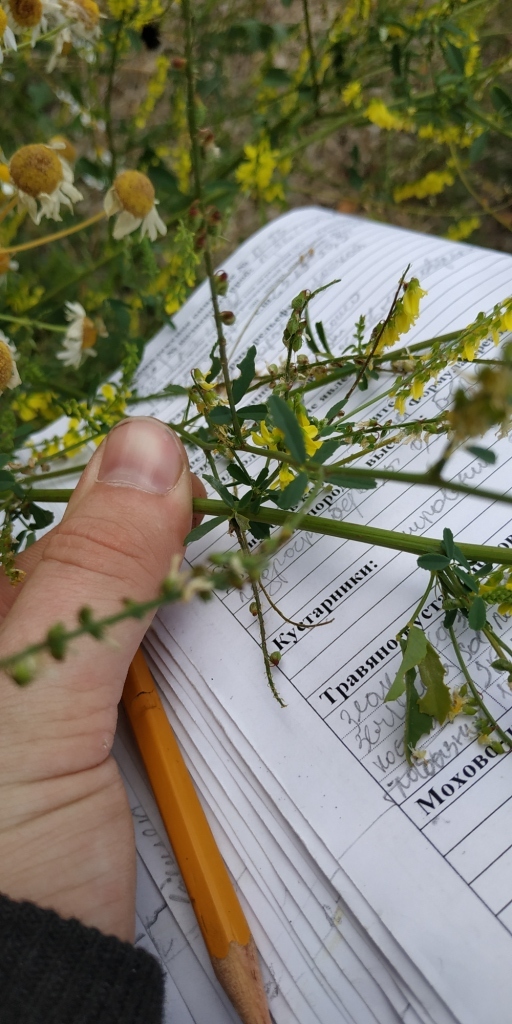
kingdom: Plantae
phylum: Tracheophyta
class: Magnoliopsida
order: Fabales
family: Fabaceae
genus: Melilotus
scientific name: Melilotus officinalis
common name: Sweetclover
